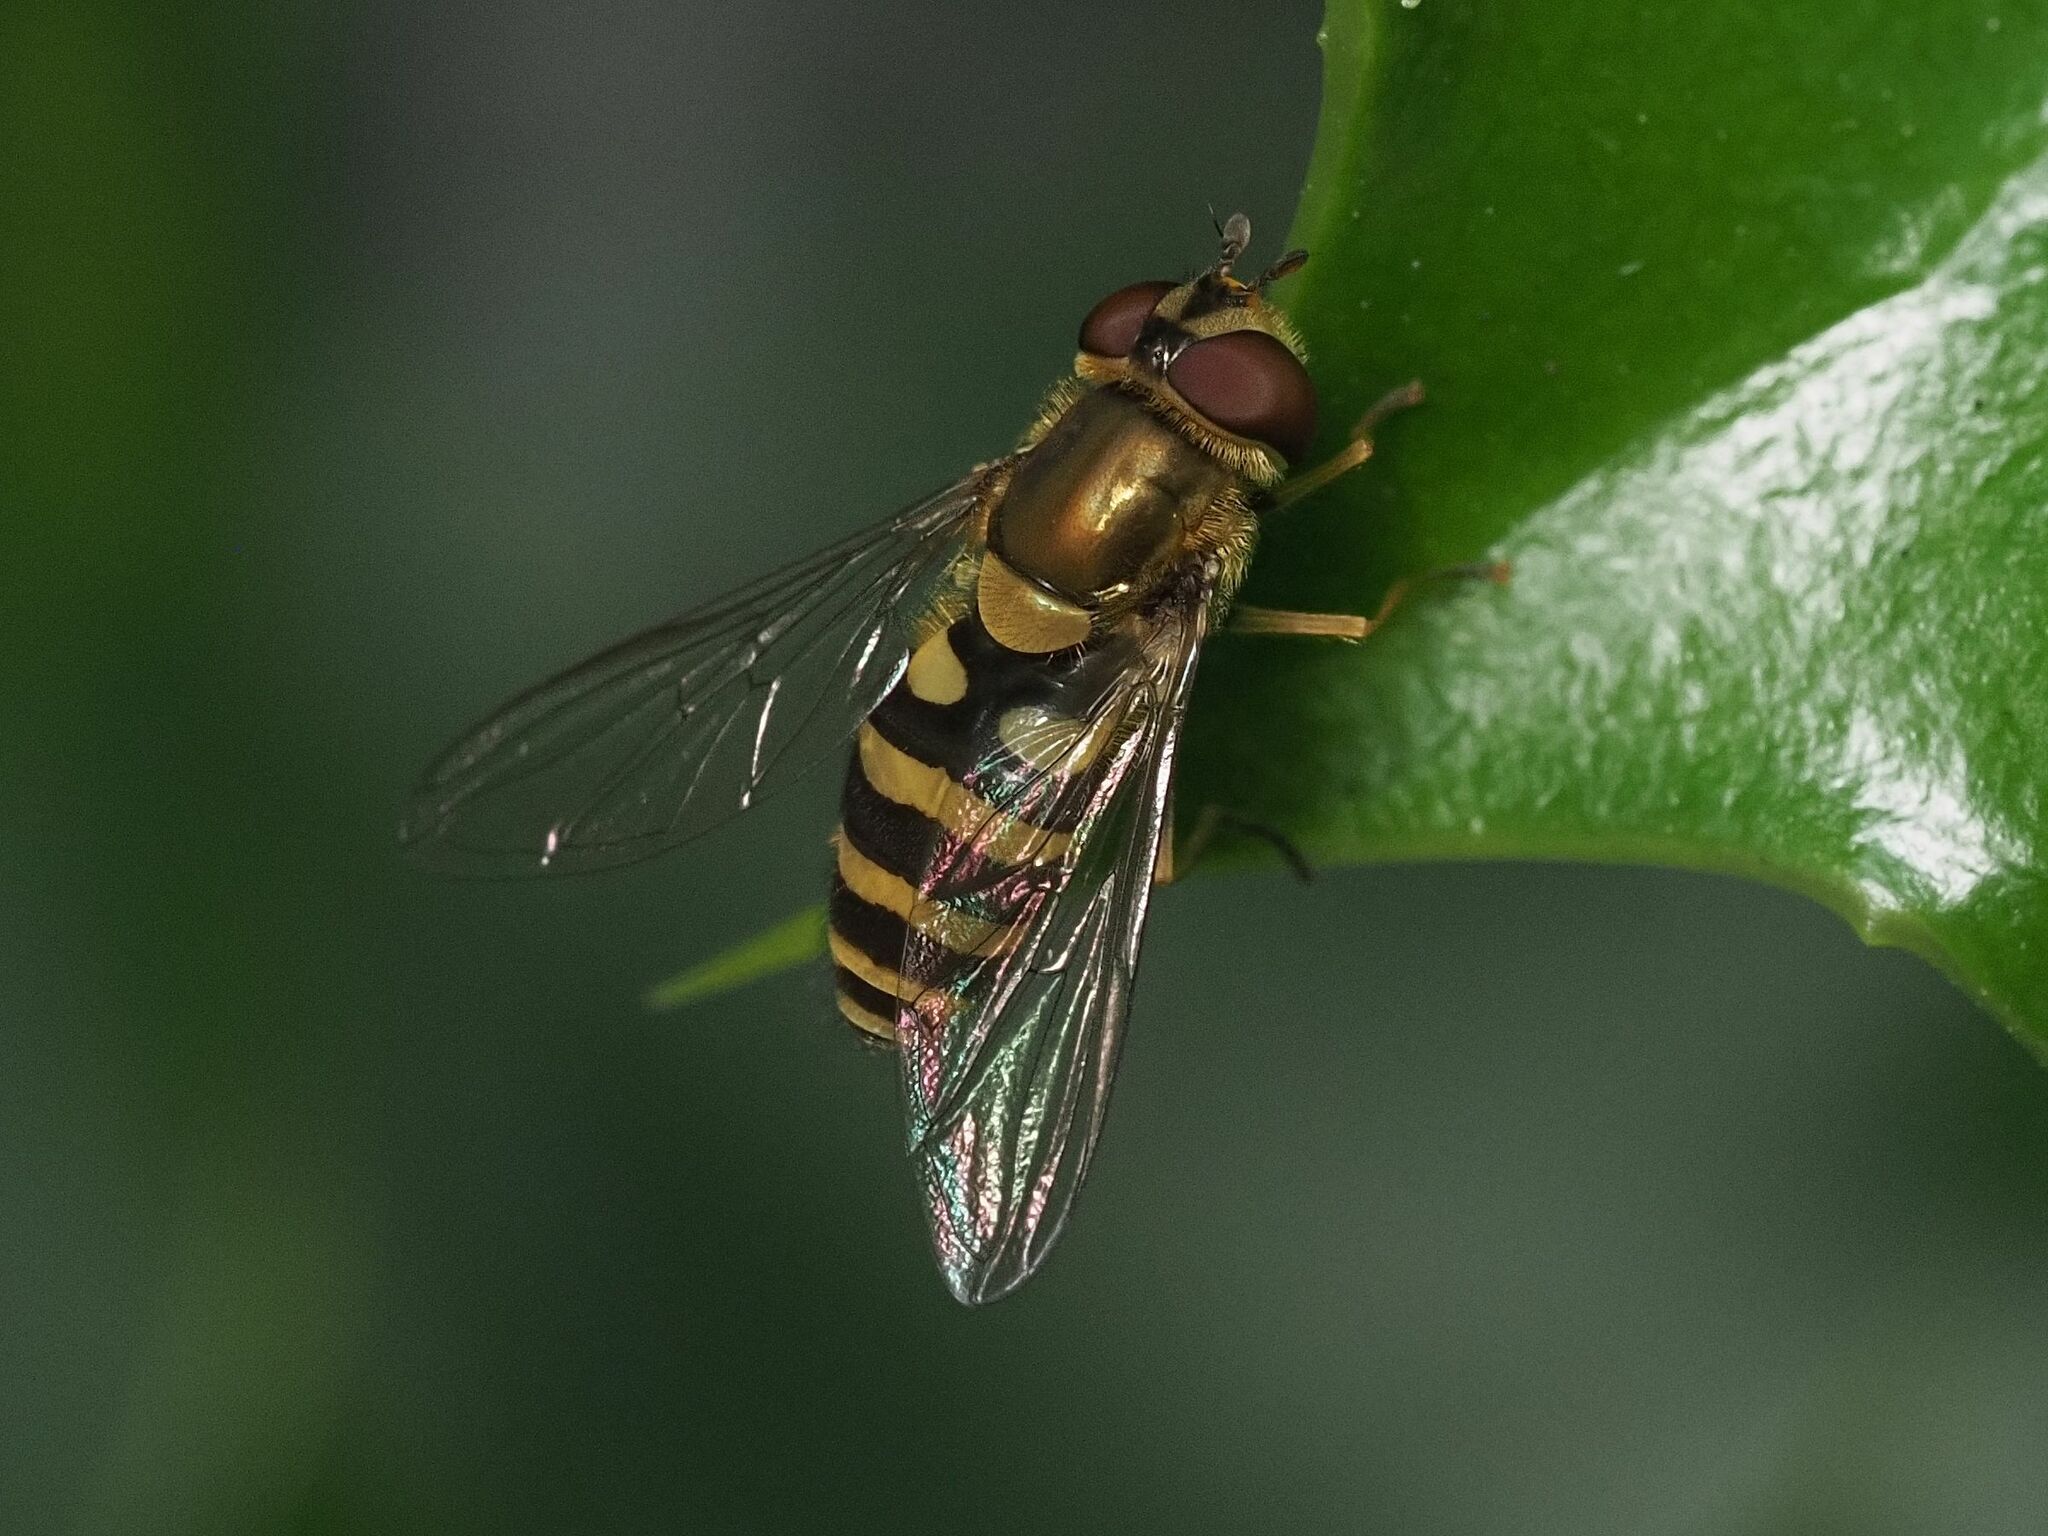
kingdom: Animalia
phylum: Arthropoda
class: Insecta
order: Diptera
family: Syrphidae
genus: Syrphus
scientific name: Syrphus
